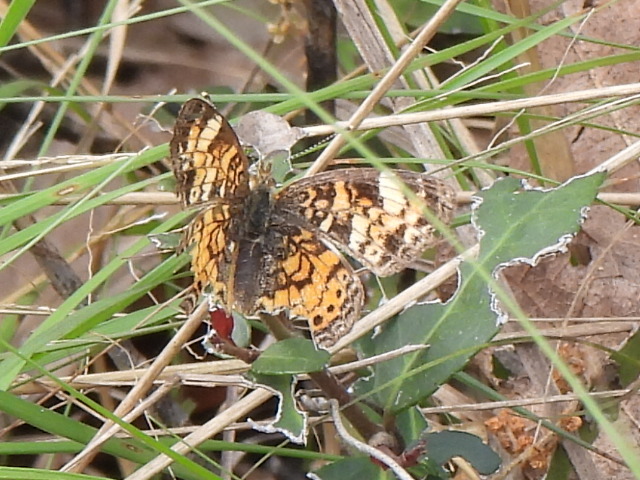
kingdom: Animalia
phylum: Arthropoda
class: Insecta
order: Lepidoptera
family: Nymphalidae
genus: Phyciodes
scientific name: Phyciodes tharos
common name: Pearl crescent
